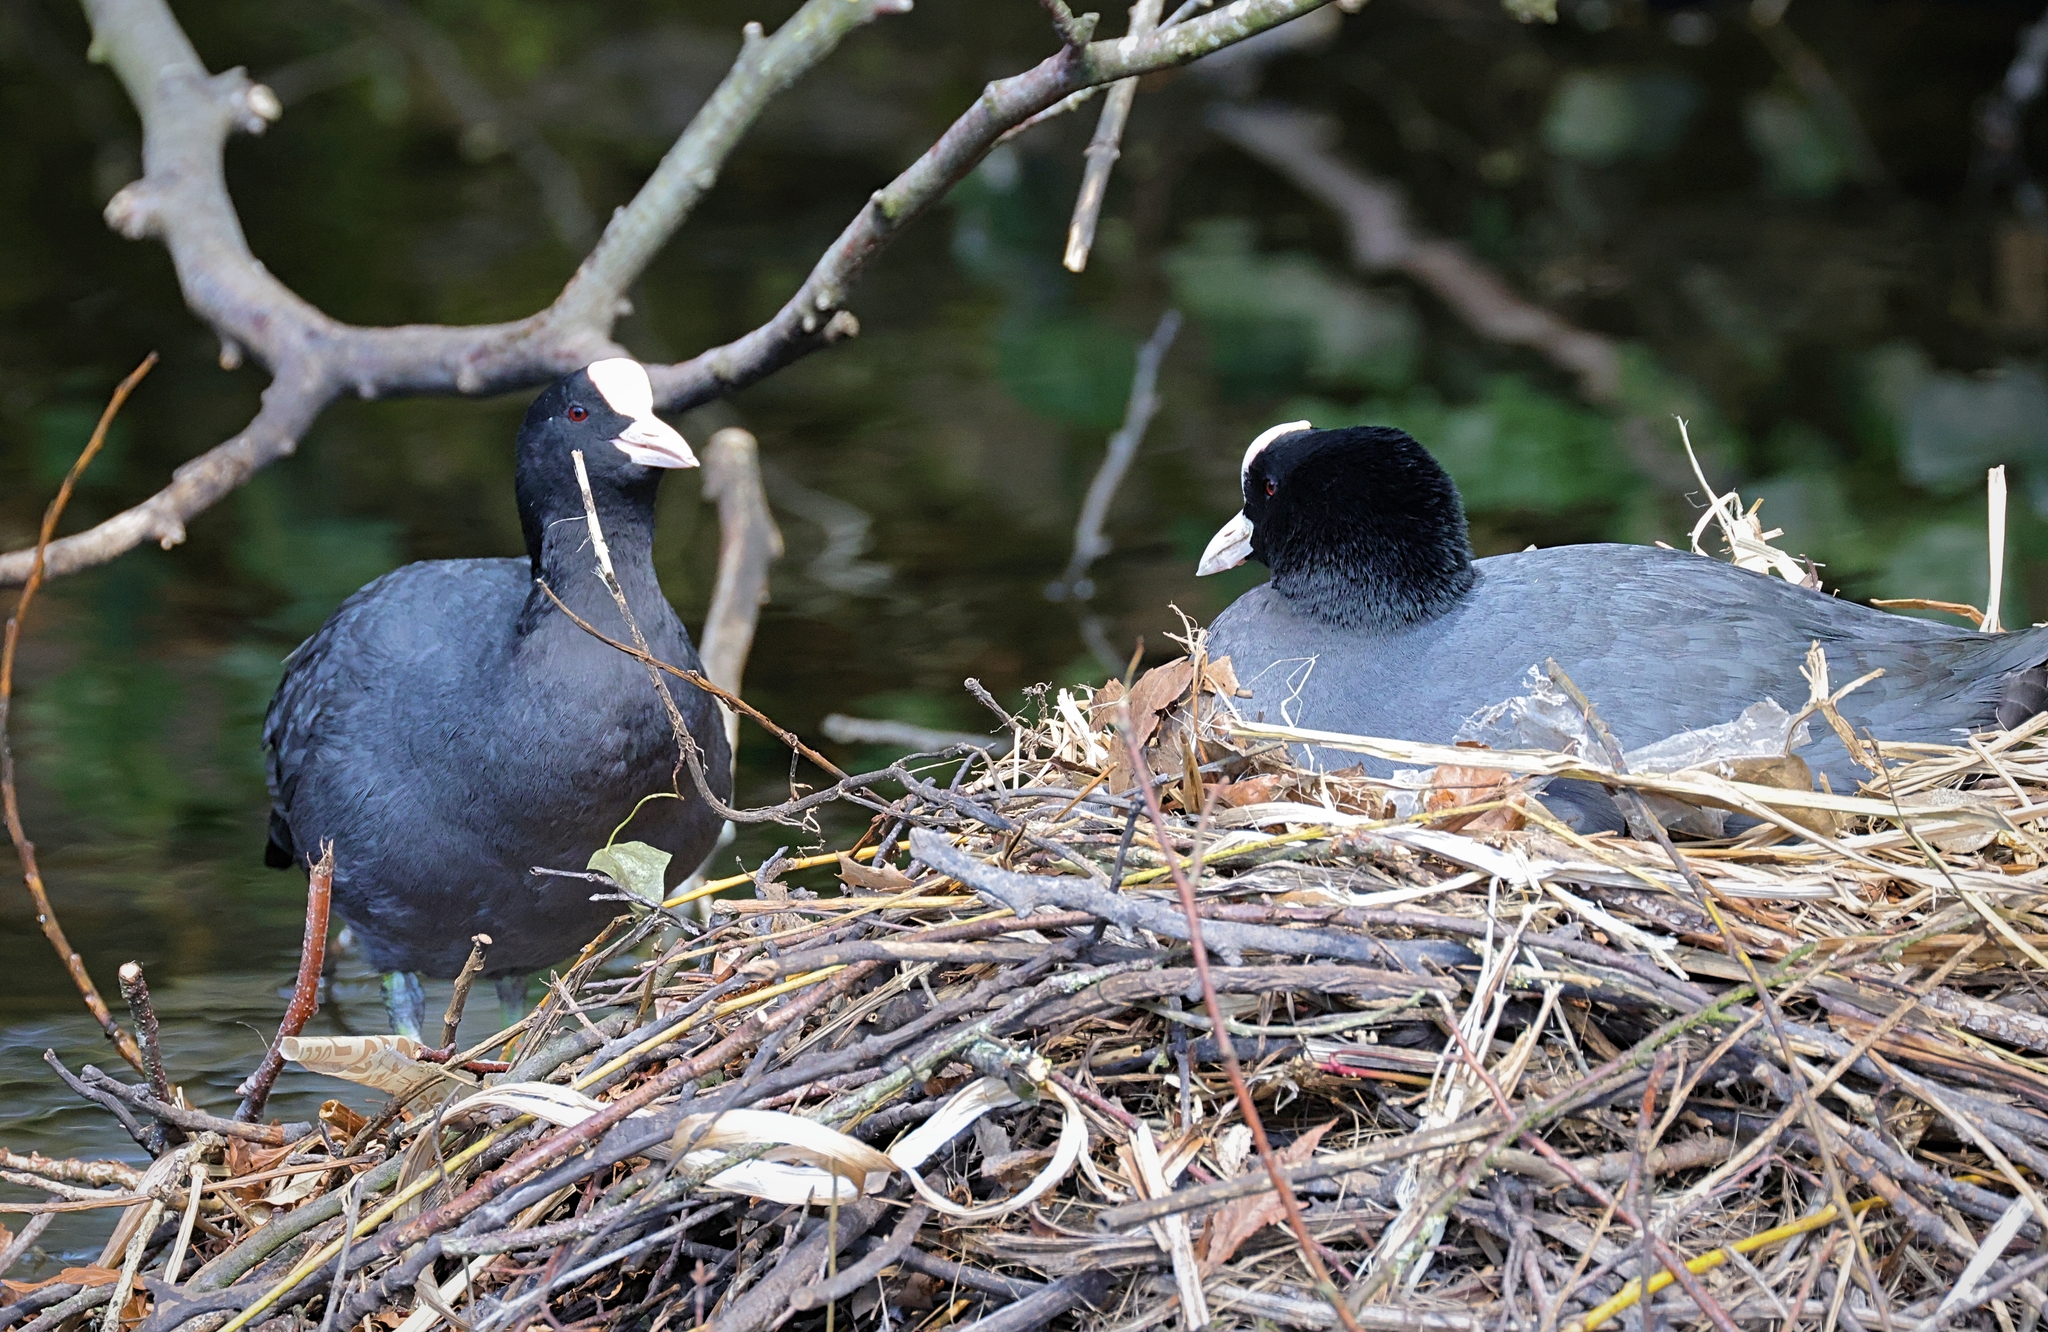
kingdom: Animalia
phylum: Chordata
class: Aves
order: Gruiformes
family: Rallidae
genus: Fulica
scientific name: Fulica atra
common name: Eurasian coot
